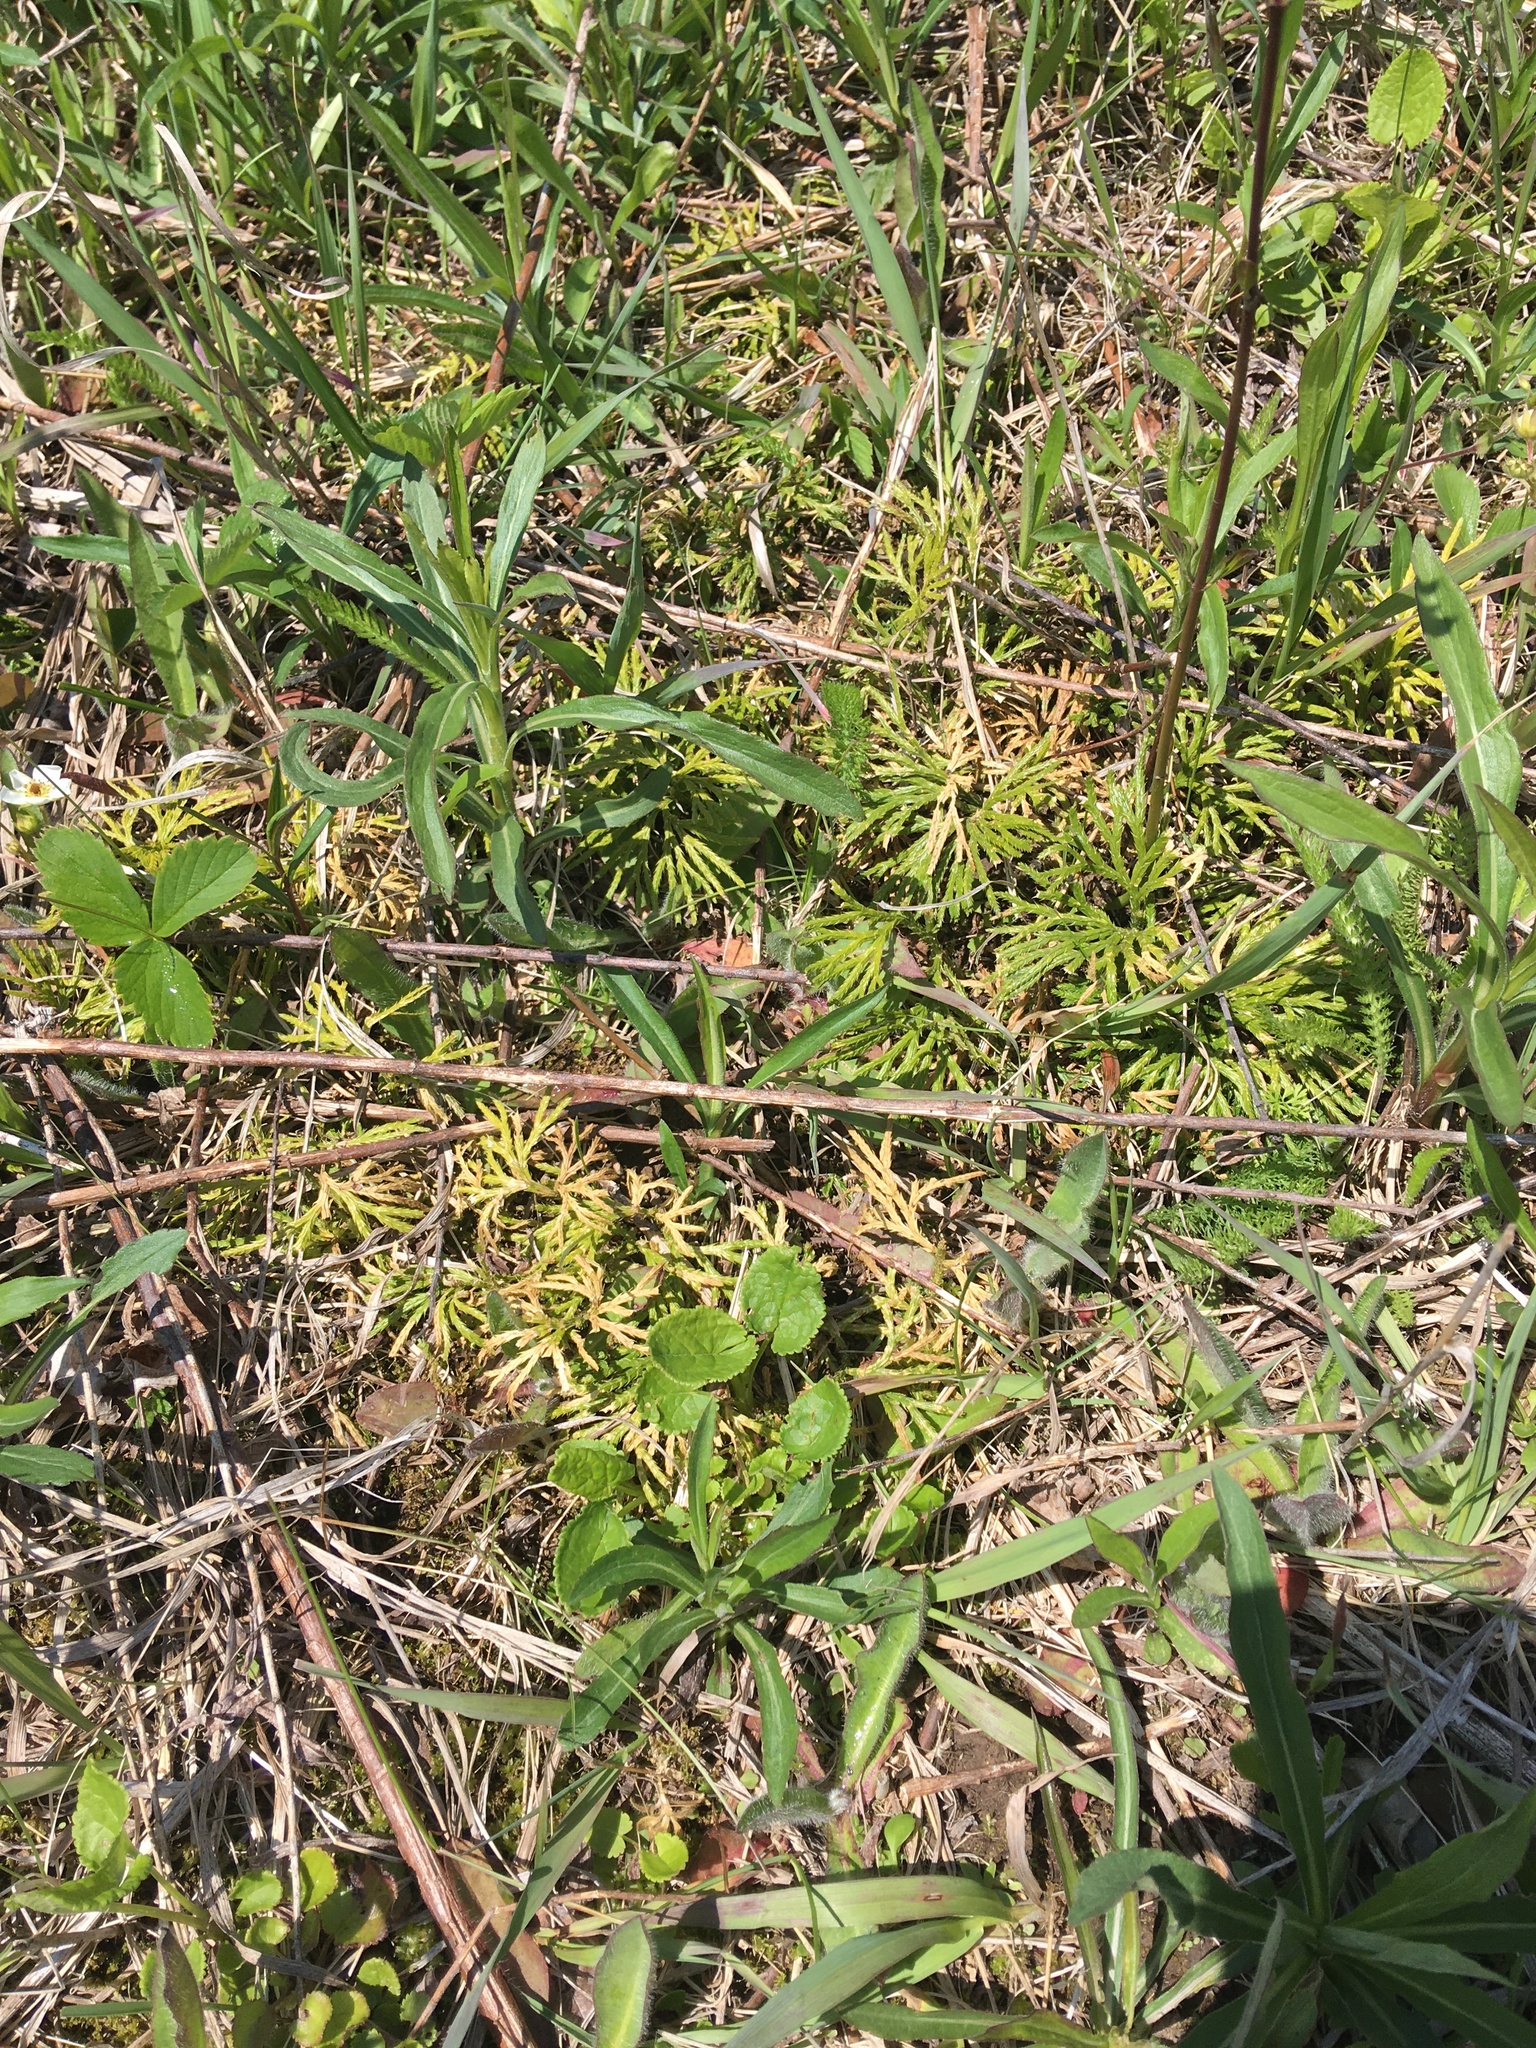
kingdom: Plantae
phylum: Tracheophyta
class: Lycopodiopsida
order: Lycopodiales
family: Lycopodiaceae
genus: Diphasiastrum
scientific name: Diphasiastrum digitatum
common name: Southern running-pine
